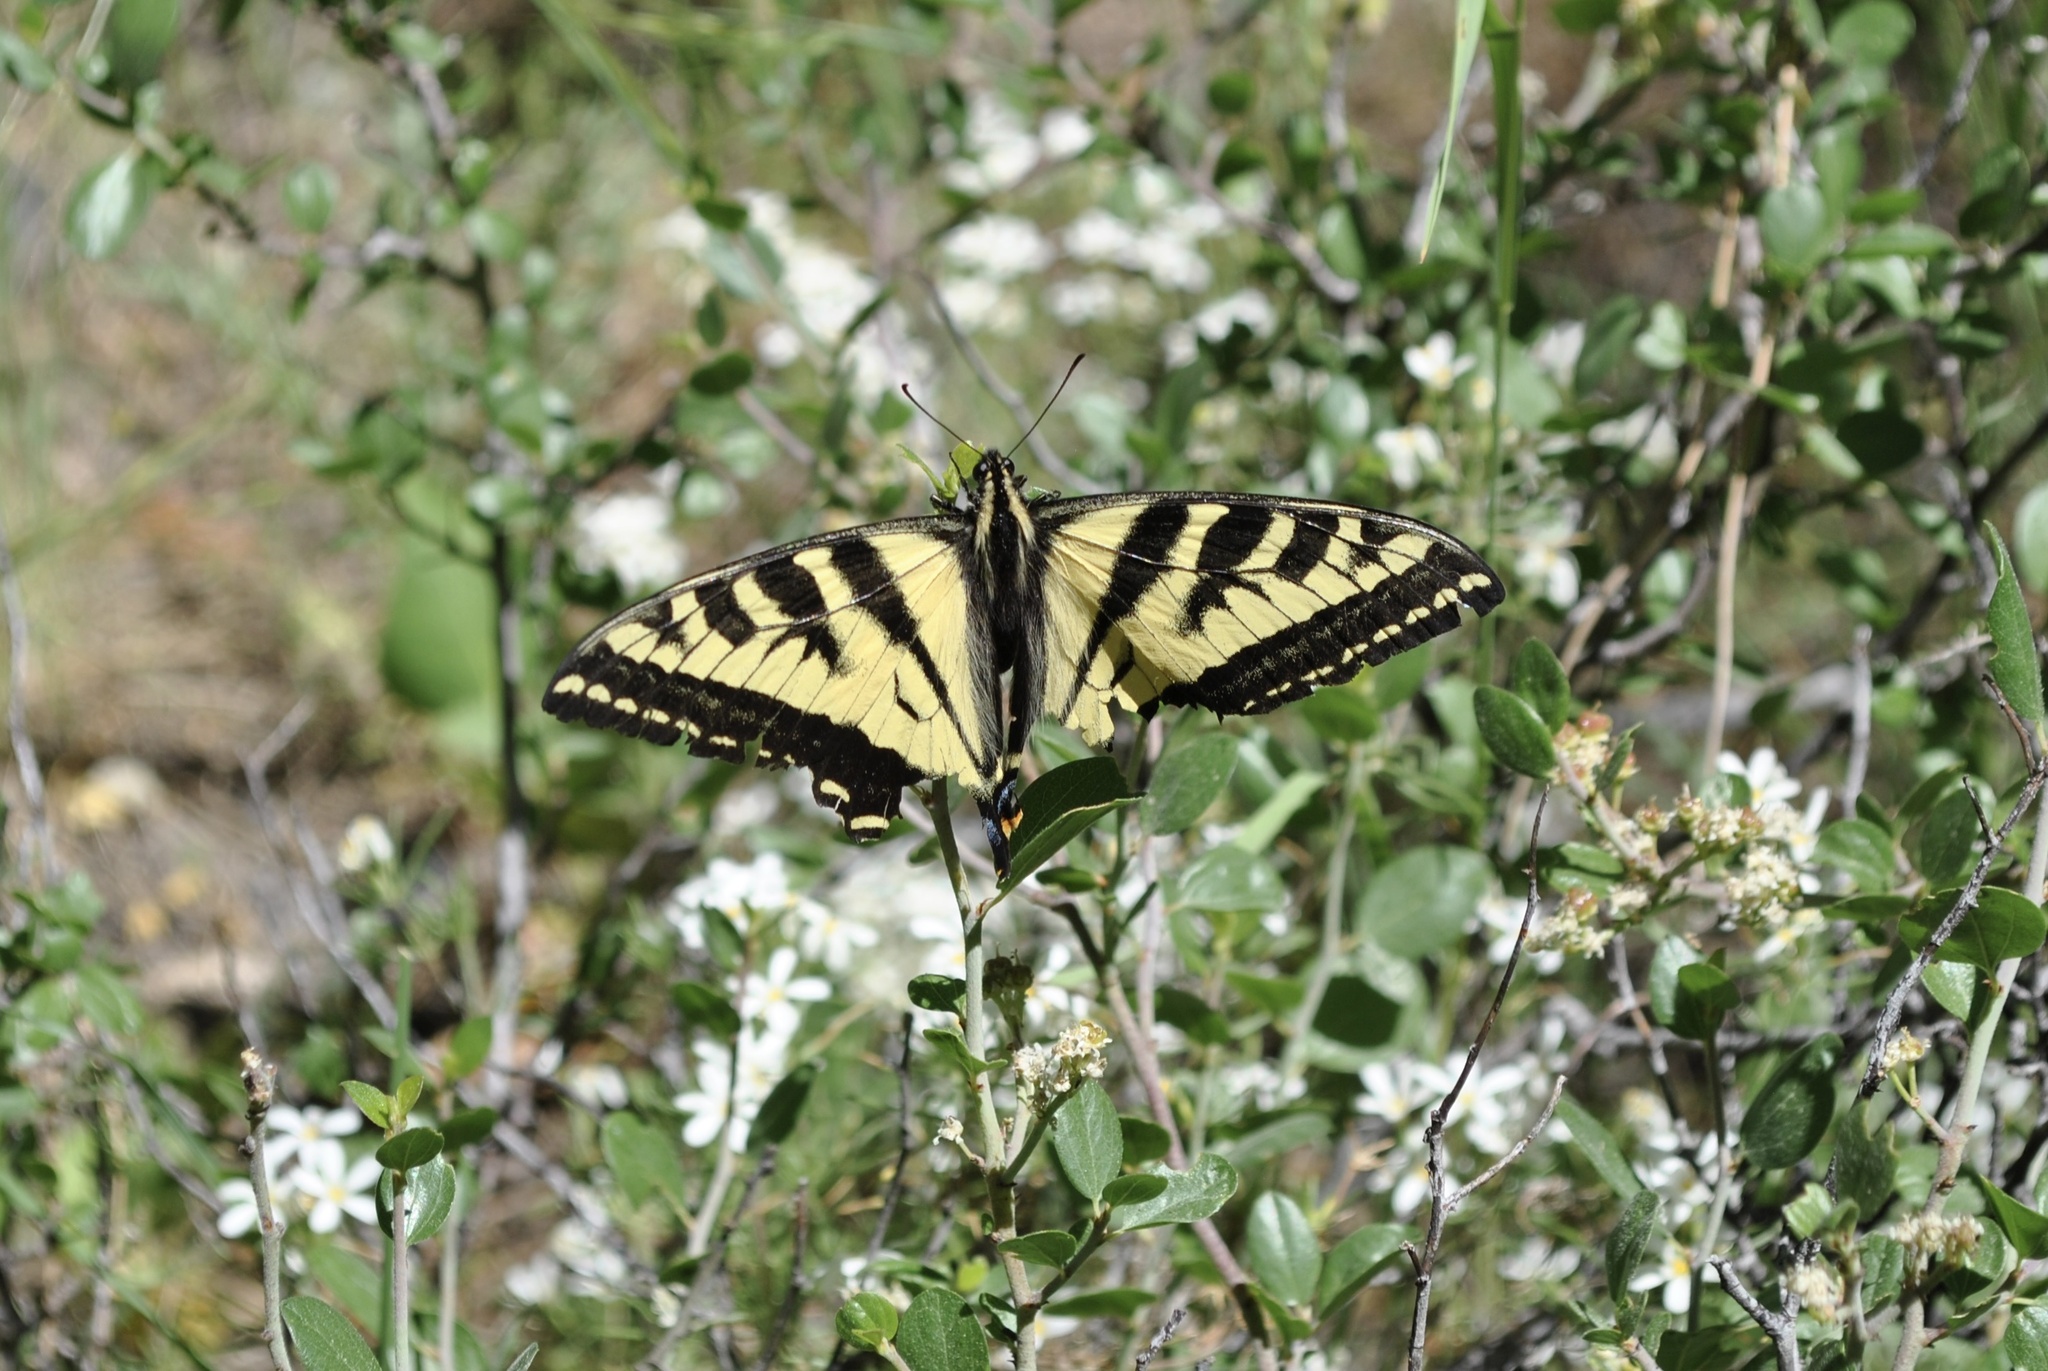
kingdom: Animalia
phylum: Arthropoda
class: Insecta
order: Lepidoptera
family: Papilionidae
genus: Papilio
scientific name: Papilio rutulus
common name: Western tiger swallowtail
